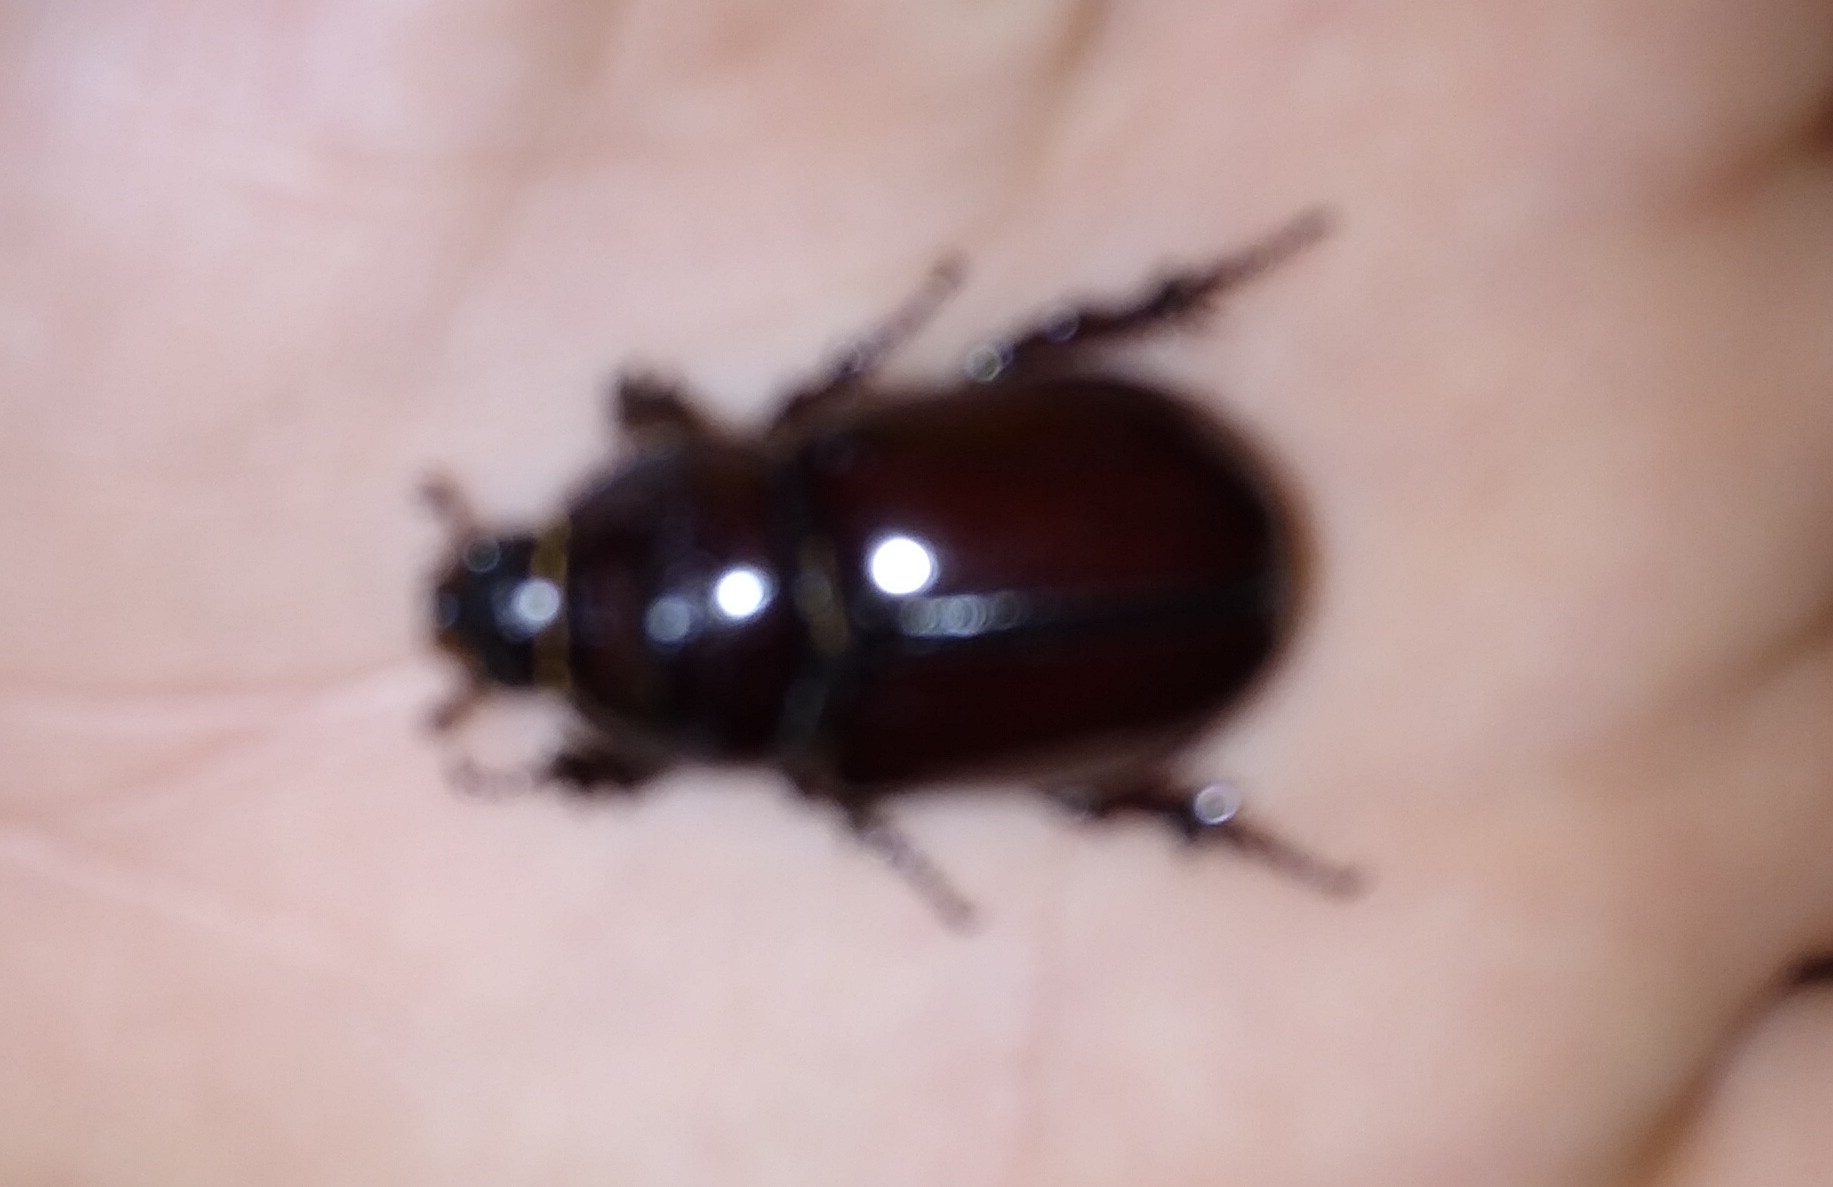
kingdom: Animalia
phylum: Arthropoda
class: Insecta
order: Coleoptera
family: Scarabaeidae
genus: Oryctes
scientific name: Oryctes nasicornis
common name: European rhinoceros beetle
